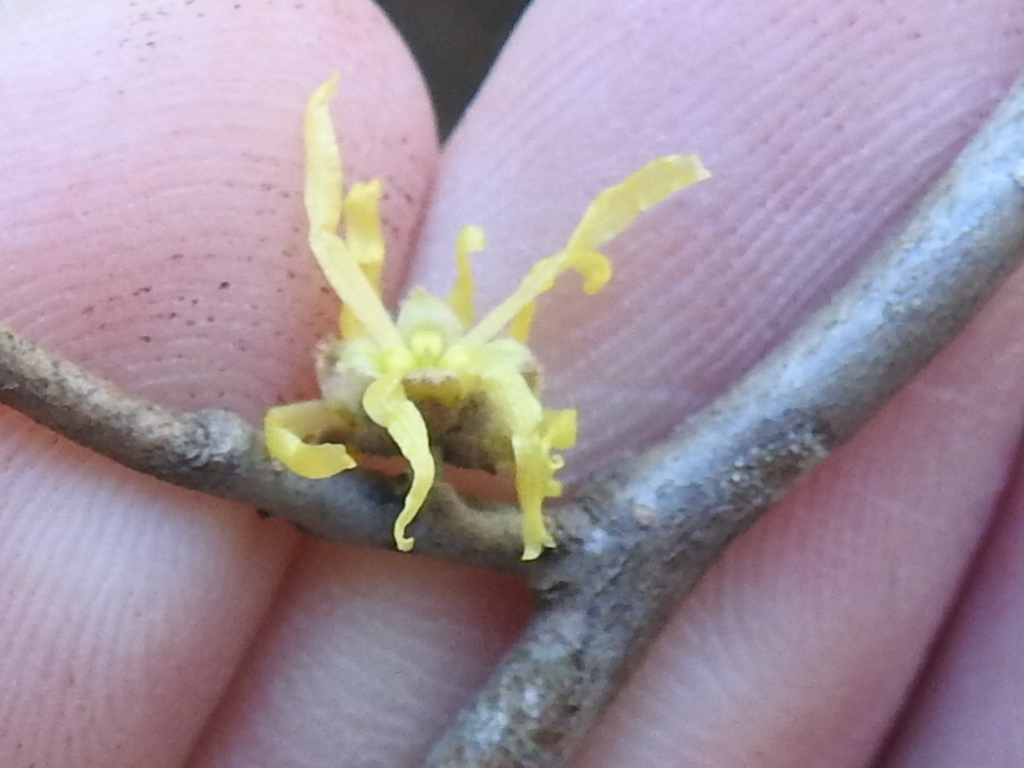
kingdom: Plantae
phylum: Tracheophyta
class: Magnoliopsida
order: Saxifragales
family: Hamamelidaceae
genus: Hamamelis
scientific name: Hamamelis virginiana
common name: Witch-hazel
